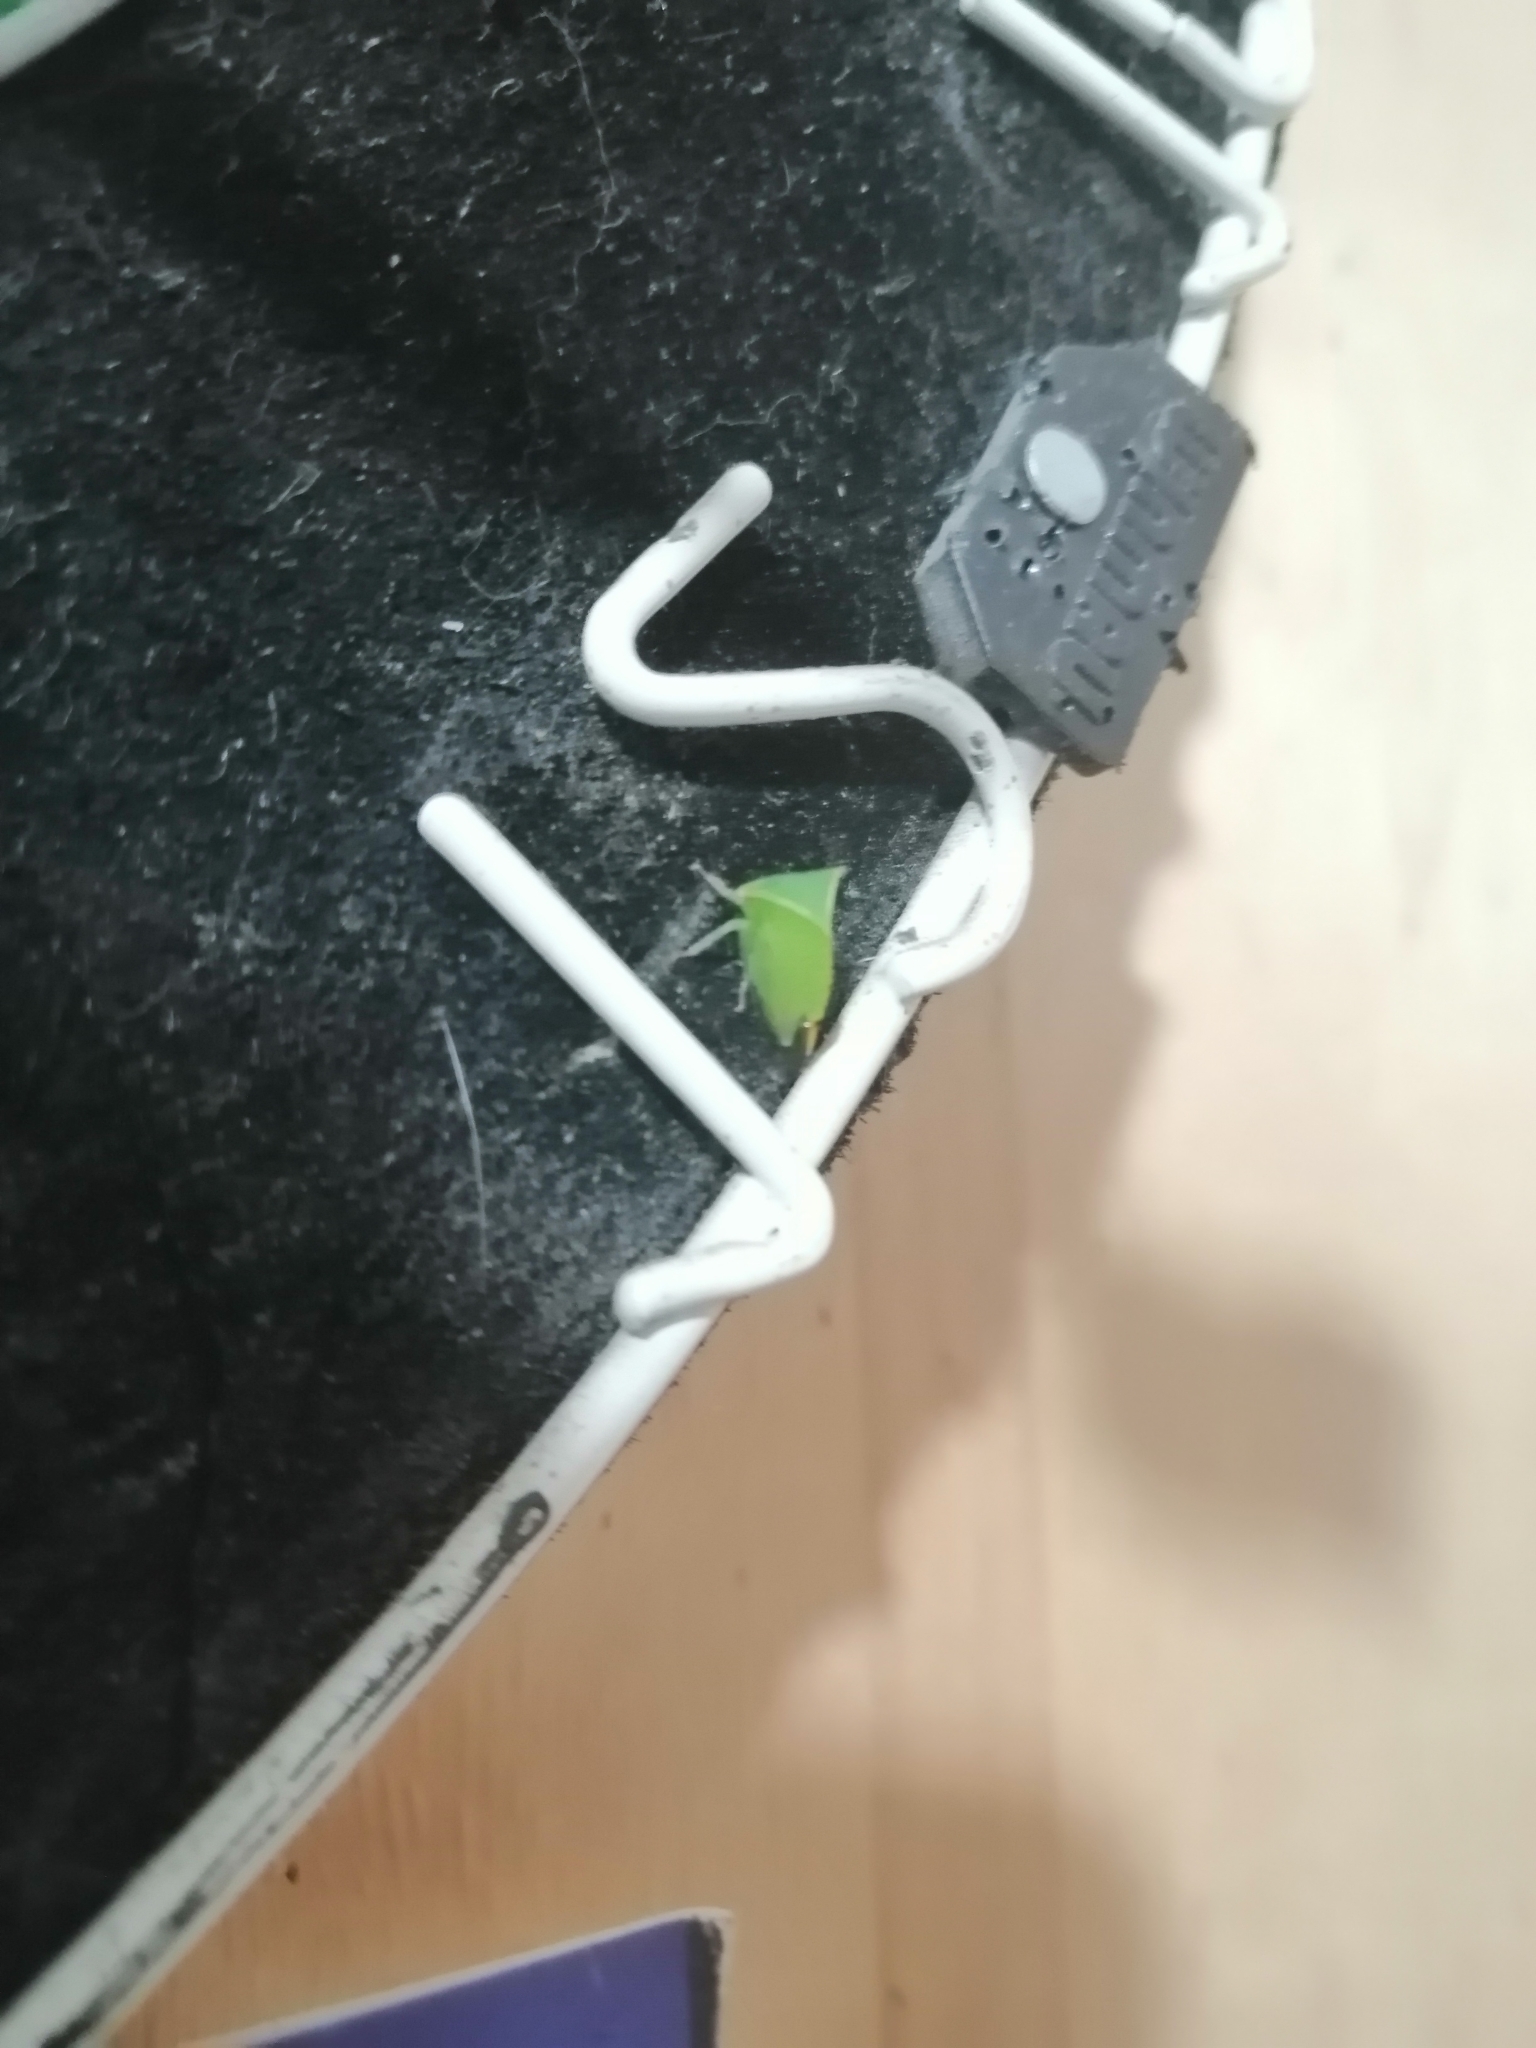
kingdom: Animalia
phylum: Arthropoda
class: Insecta
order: Hemiptera
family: Membracidae
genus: Stictocephala
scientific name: Stictocephala bisonia
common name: American buffalo treehopper
